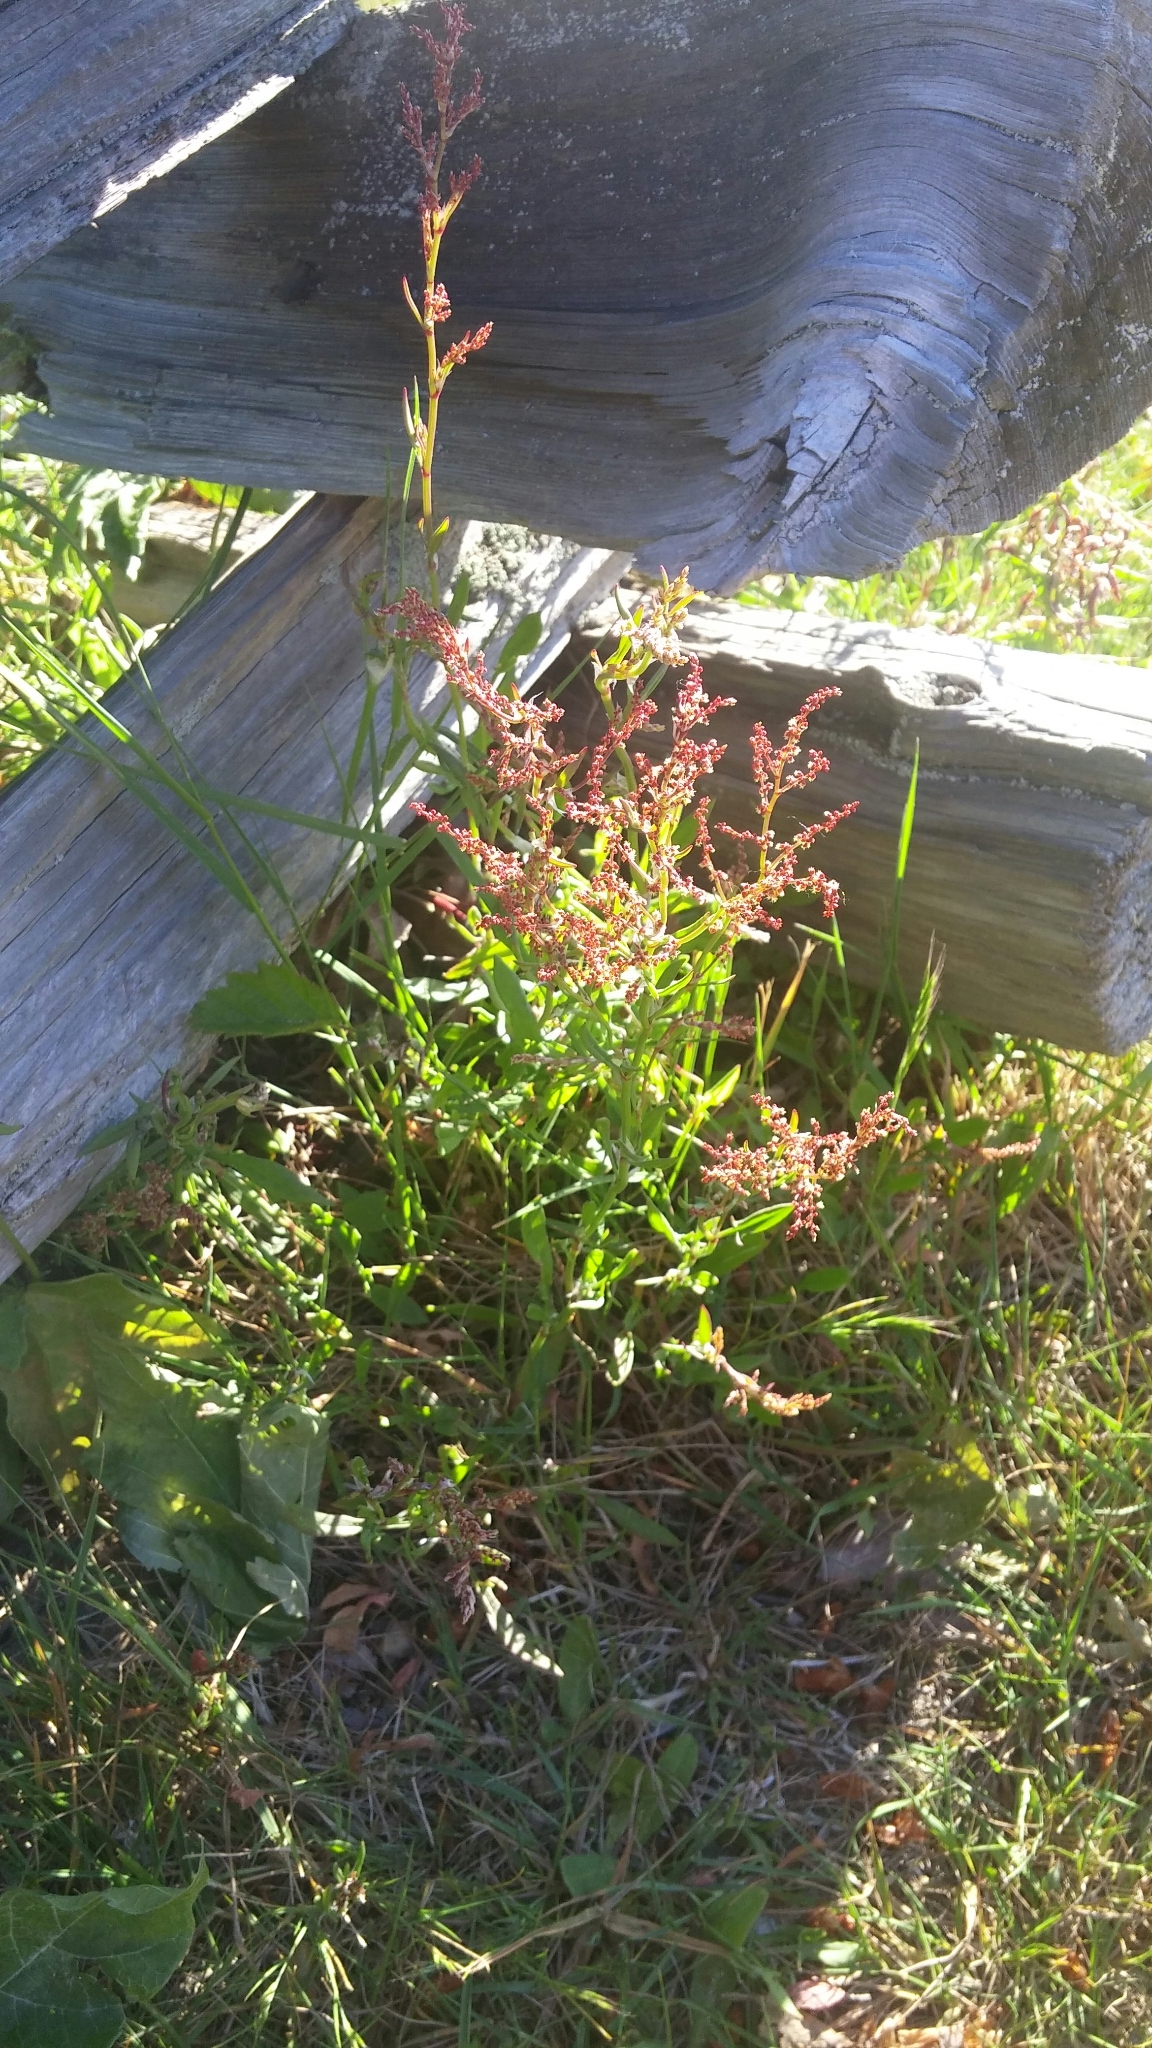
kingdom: Plantae
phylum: Tracheophyta
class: Magnoliopsida
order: Caryophyllales
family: Polygonaceae
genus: Rumex
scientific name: Rumex acetosella
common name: Common sheep sorrel
